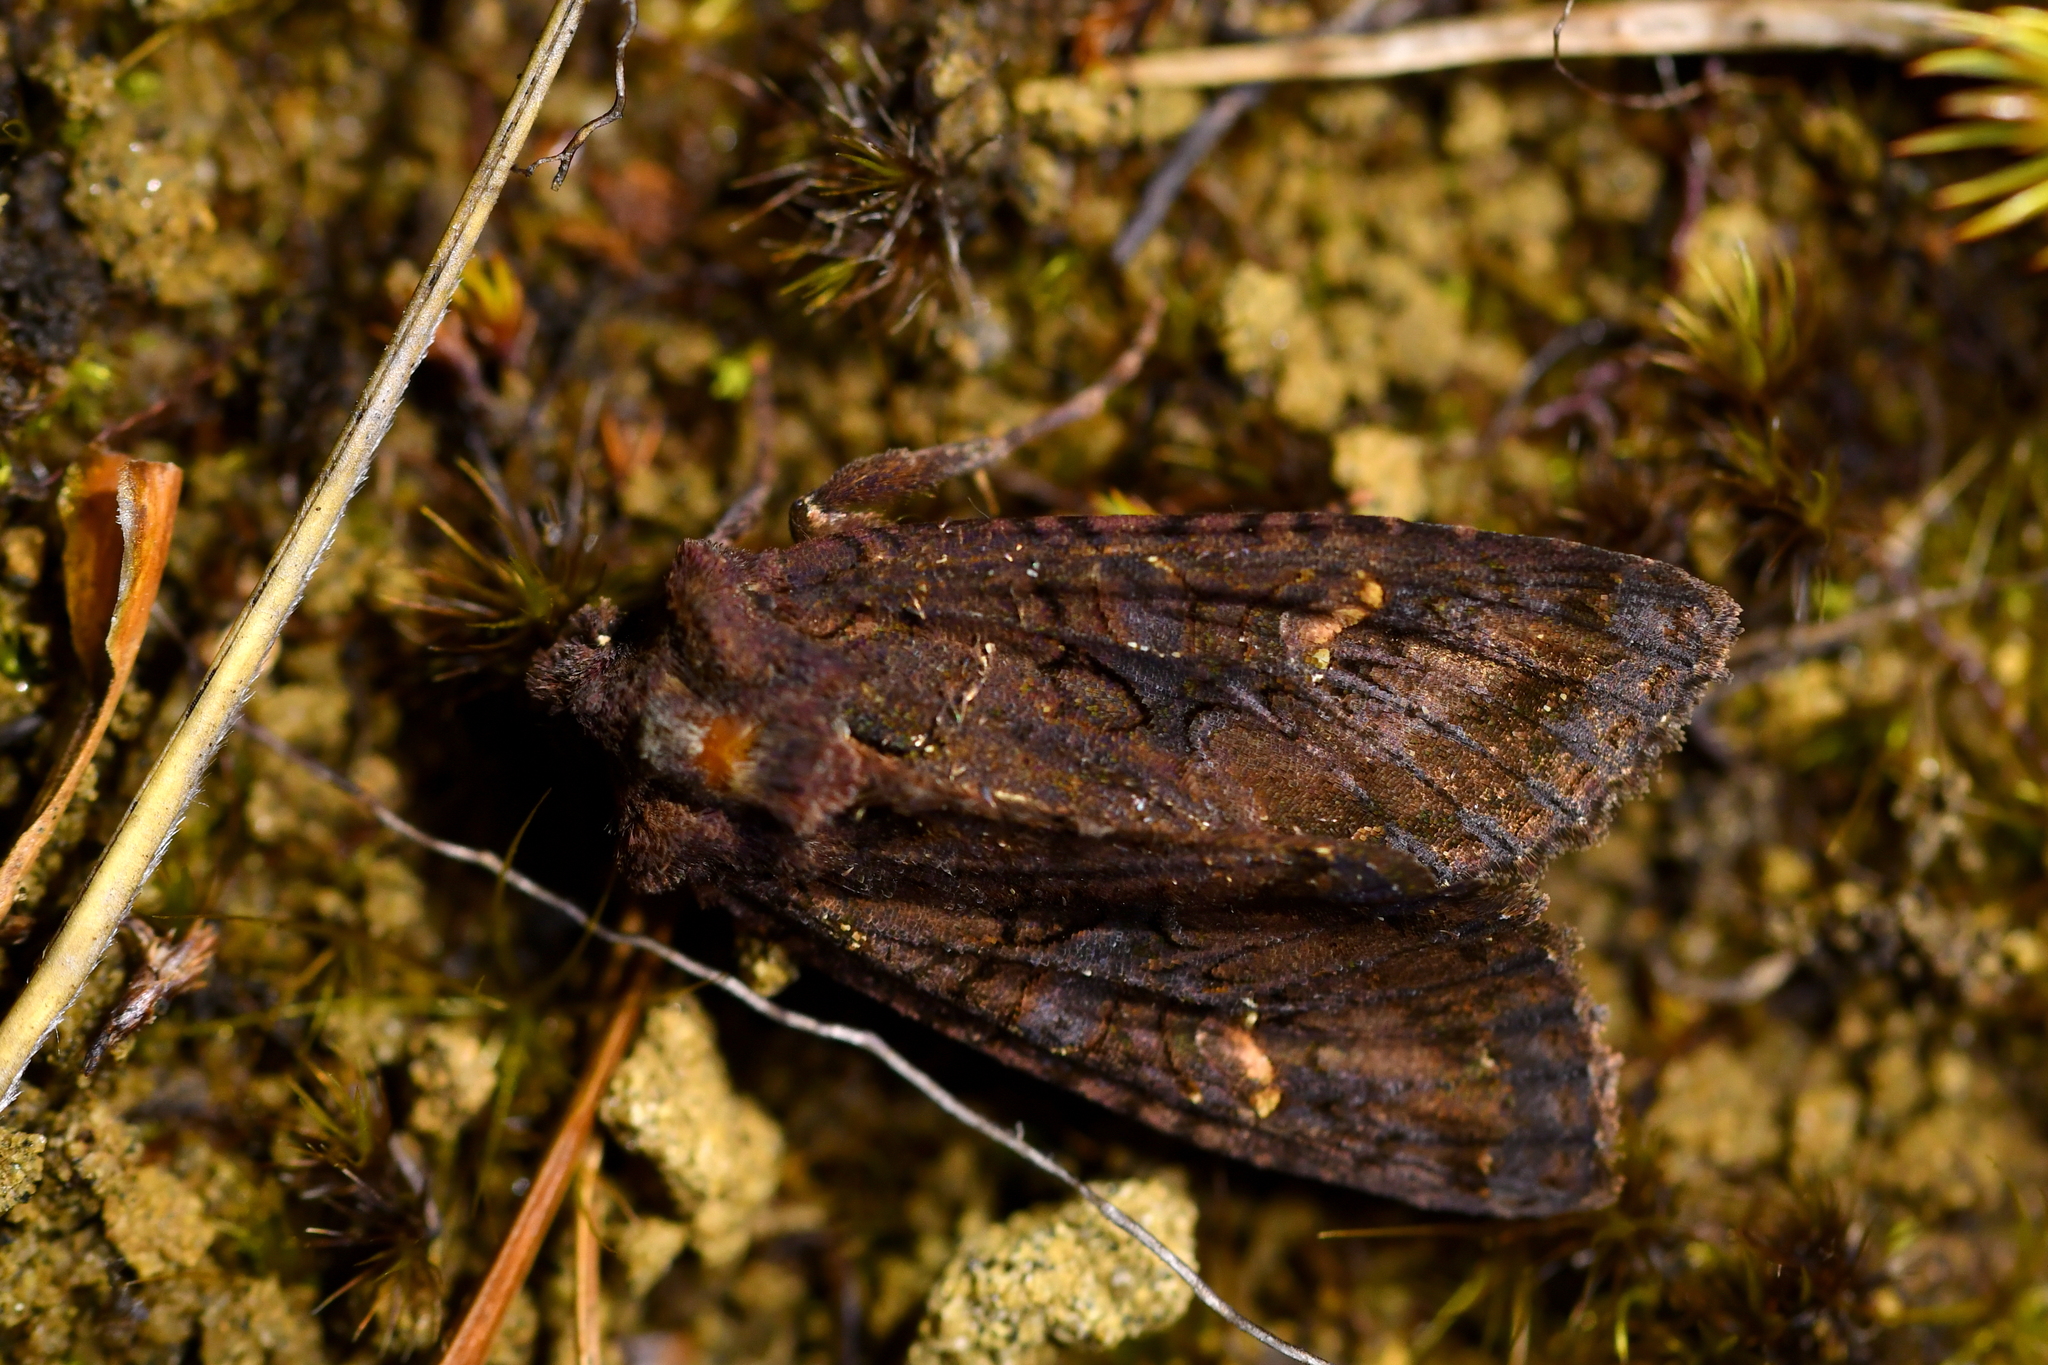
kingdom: Animalia
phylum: Arthropoda
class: Insecta
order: Lepidoptera
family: Noctuidae
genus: Meterana
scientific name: Meterana dotata
